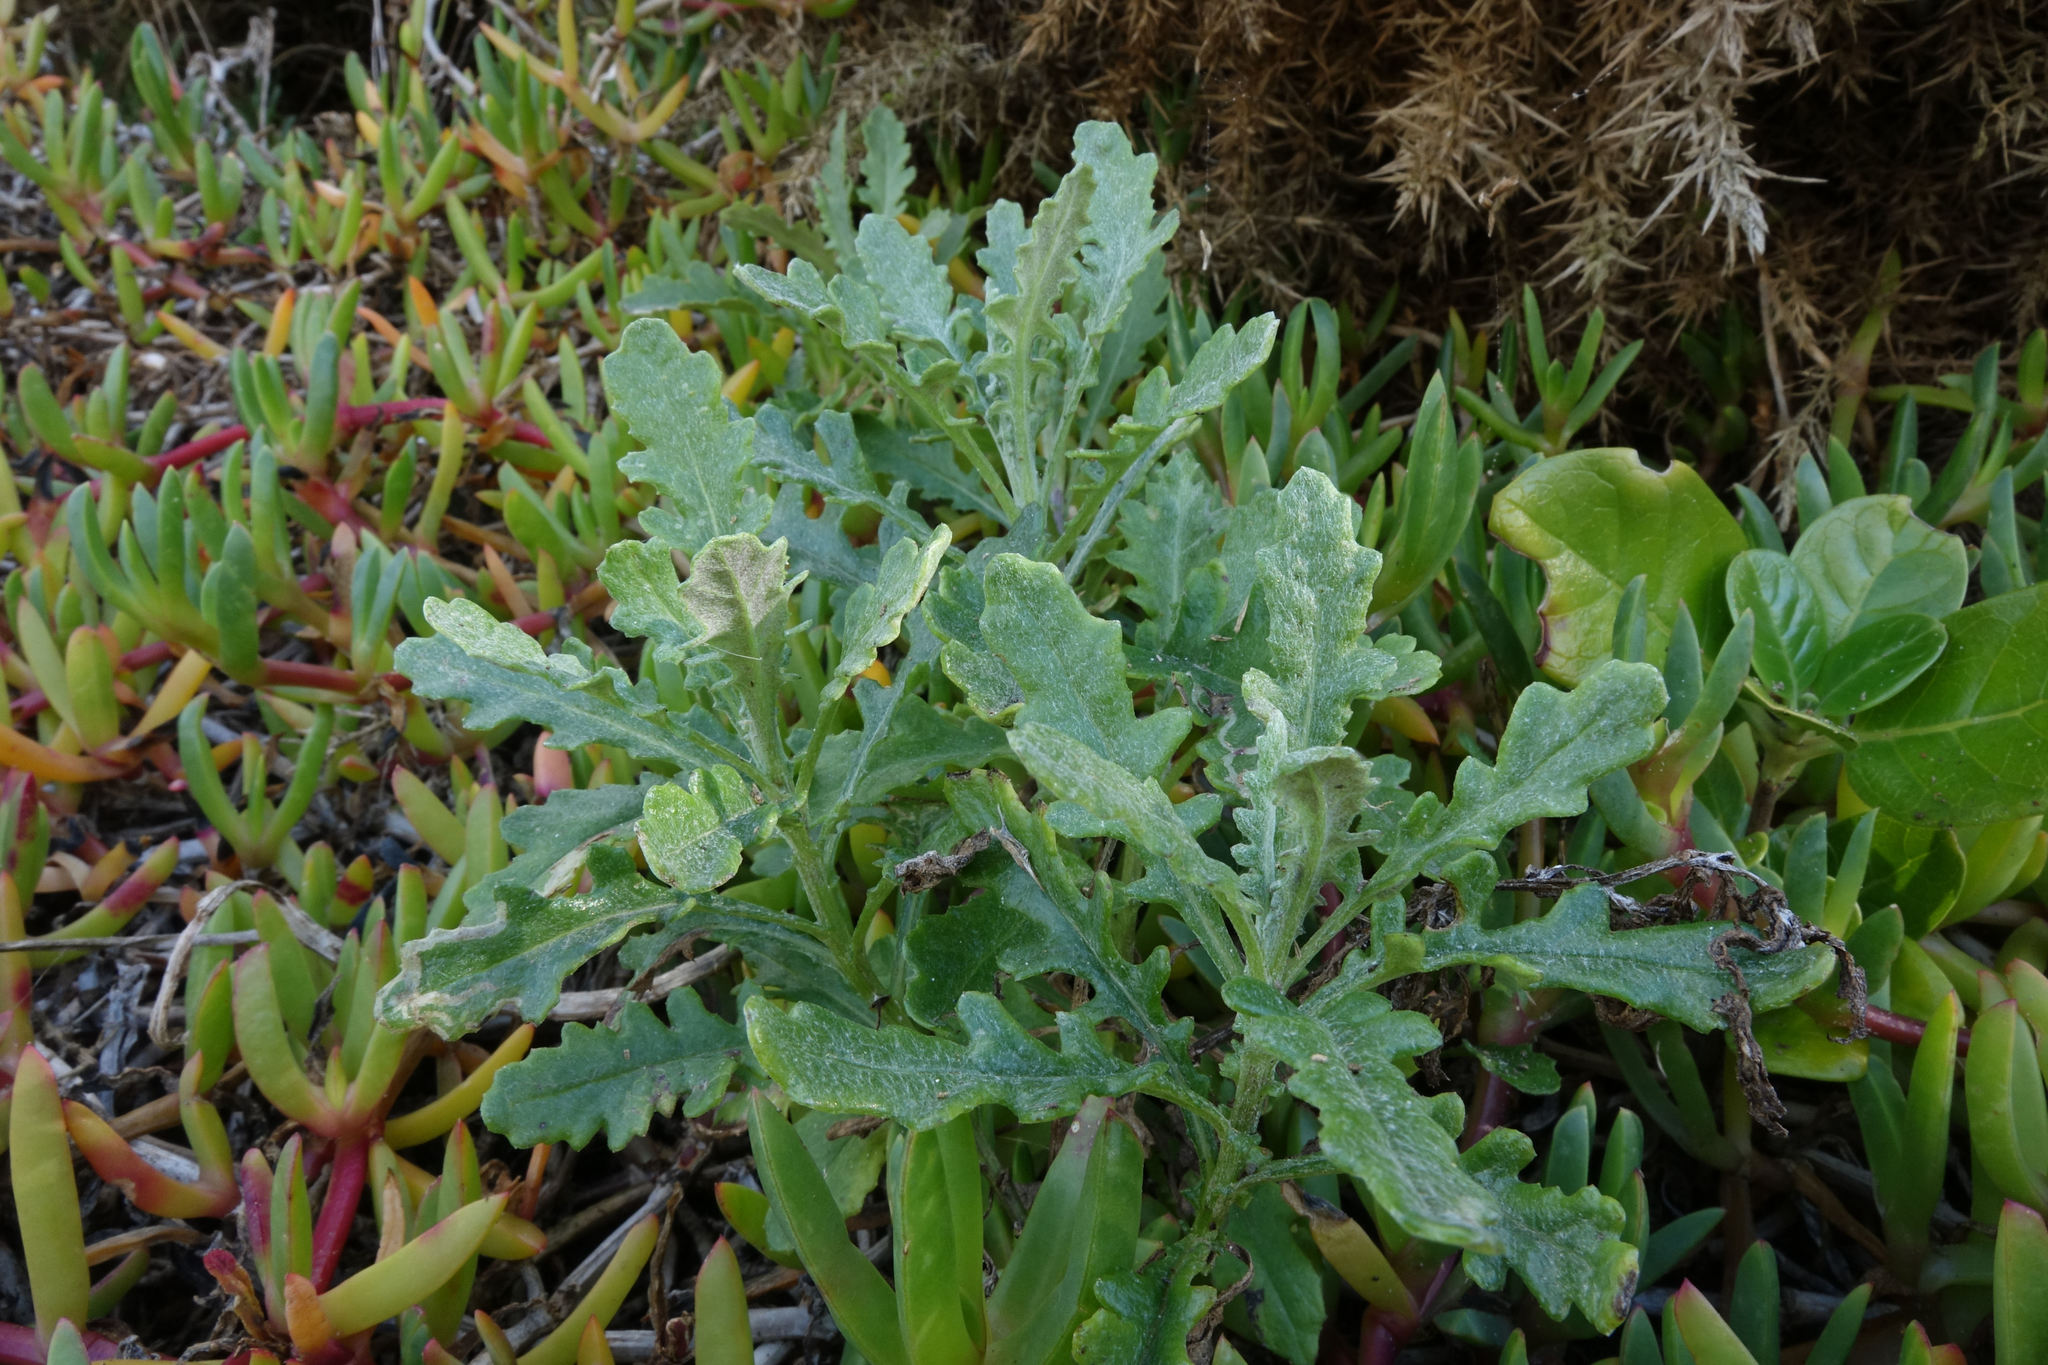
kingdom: Plantae
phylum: Tracheophyta
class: Magnoliopsida
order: Asterales
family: Asteraceae
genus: Senecio
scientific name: Senecio glomeratus
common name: Cutleaf burnweed
